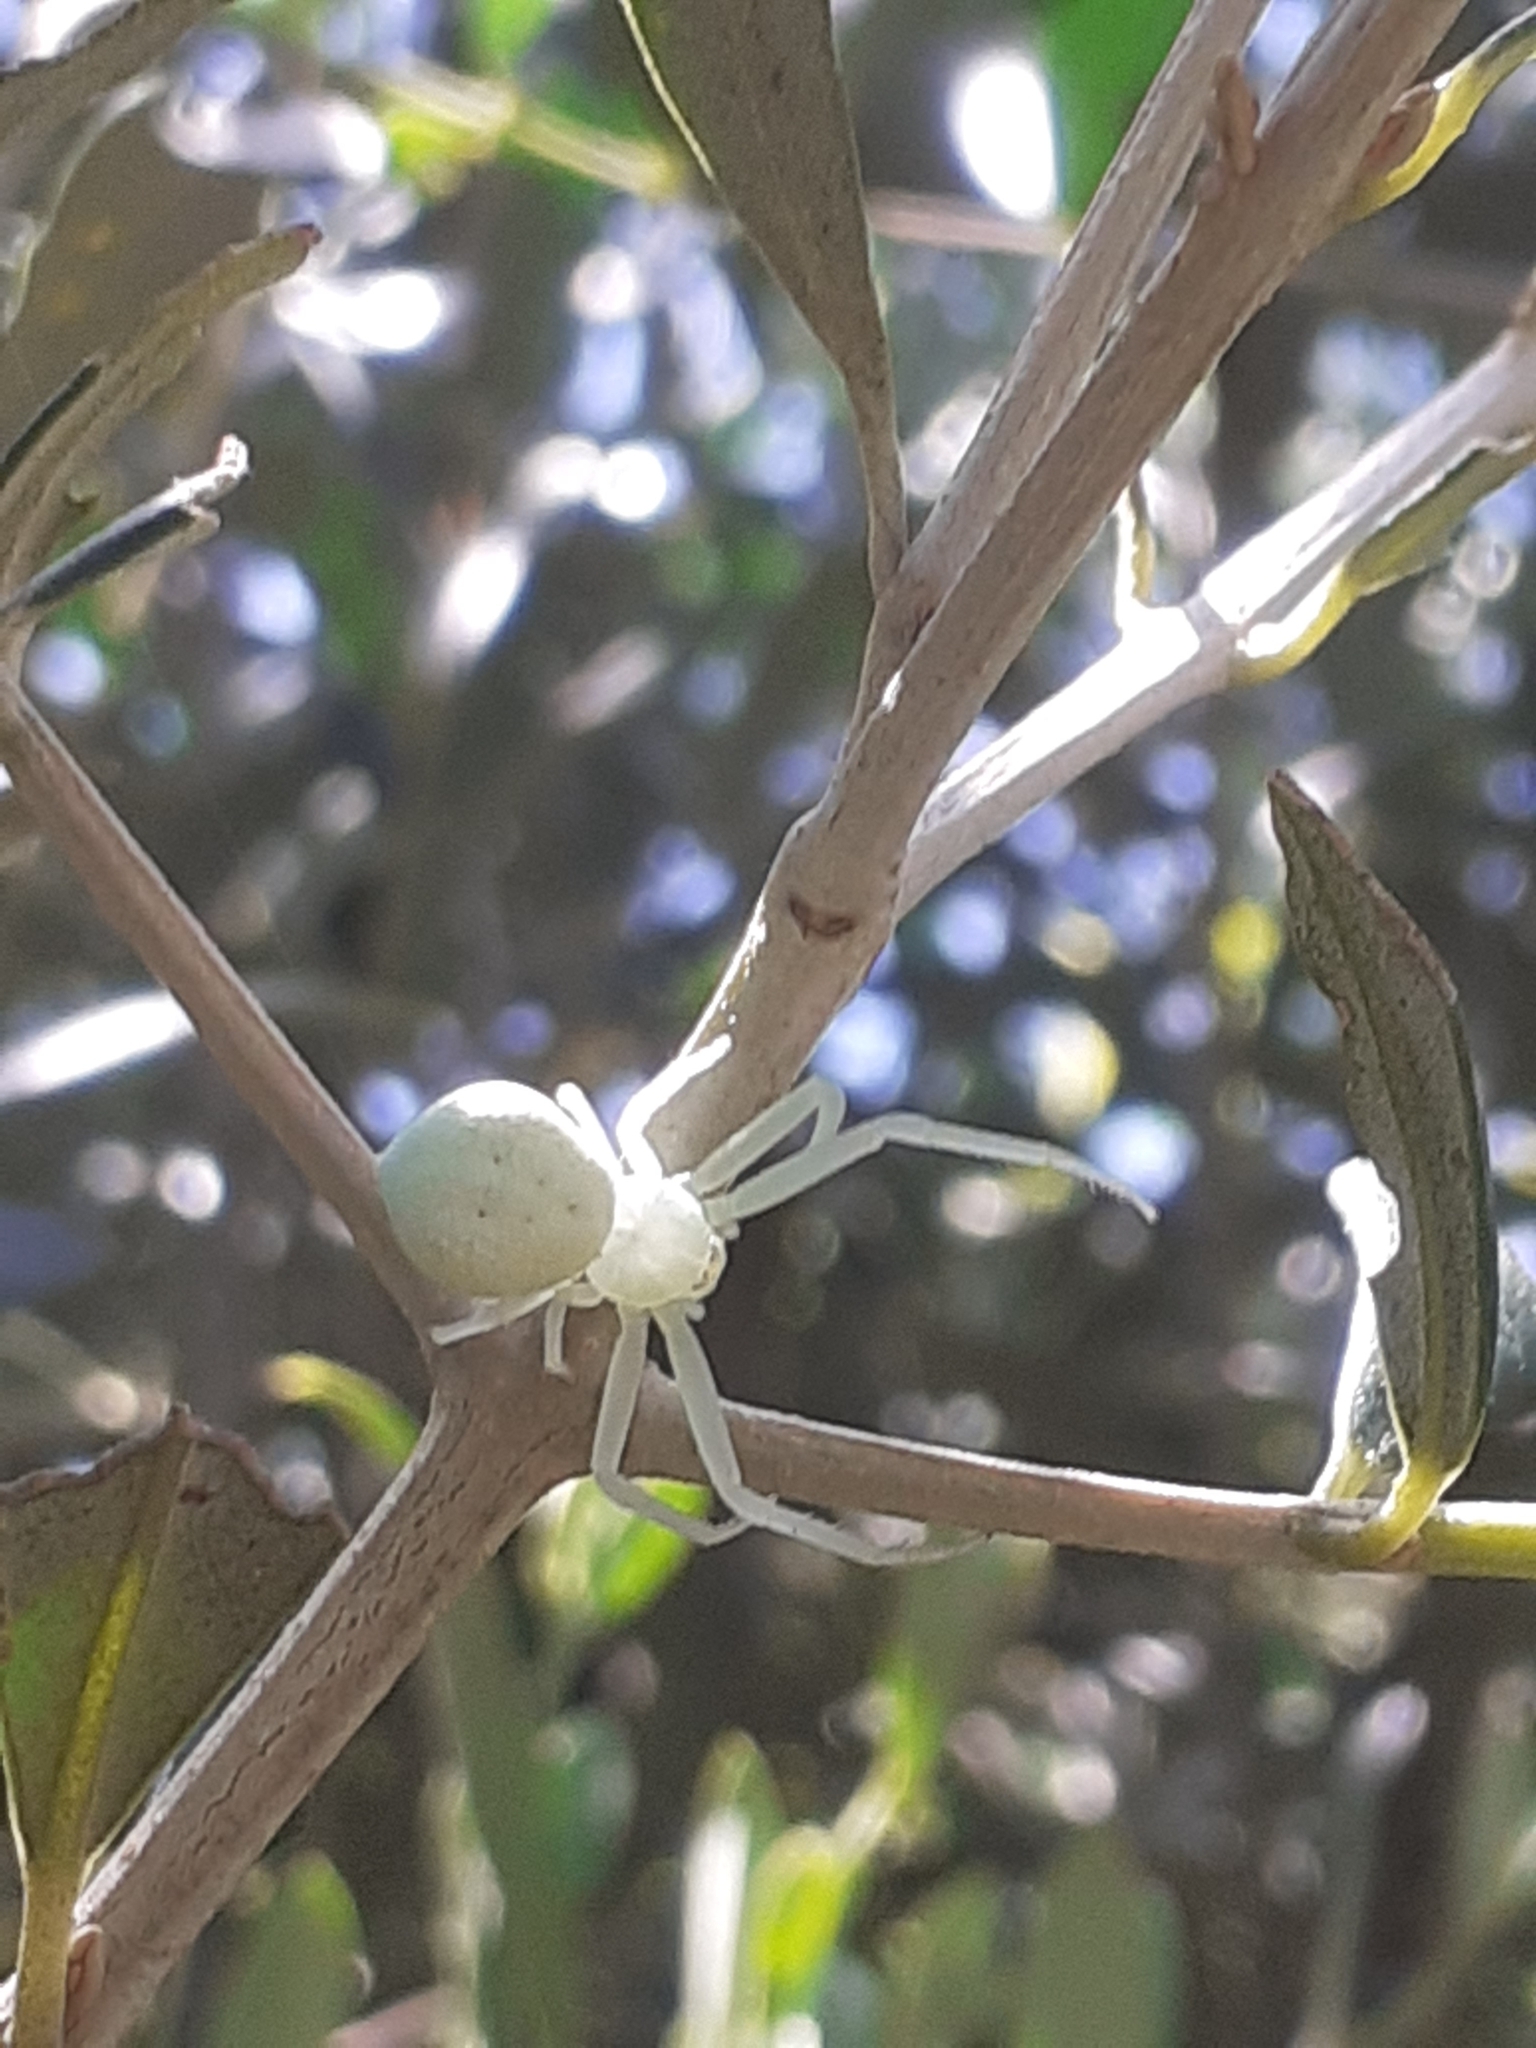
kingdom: Animalia
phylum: Arthropoda
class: Arachnida
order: Araneae
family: Thomisidae
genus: Misumena
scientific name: Misumena spinifera
